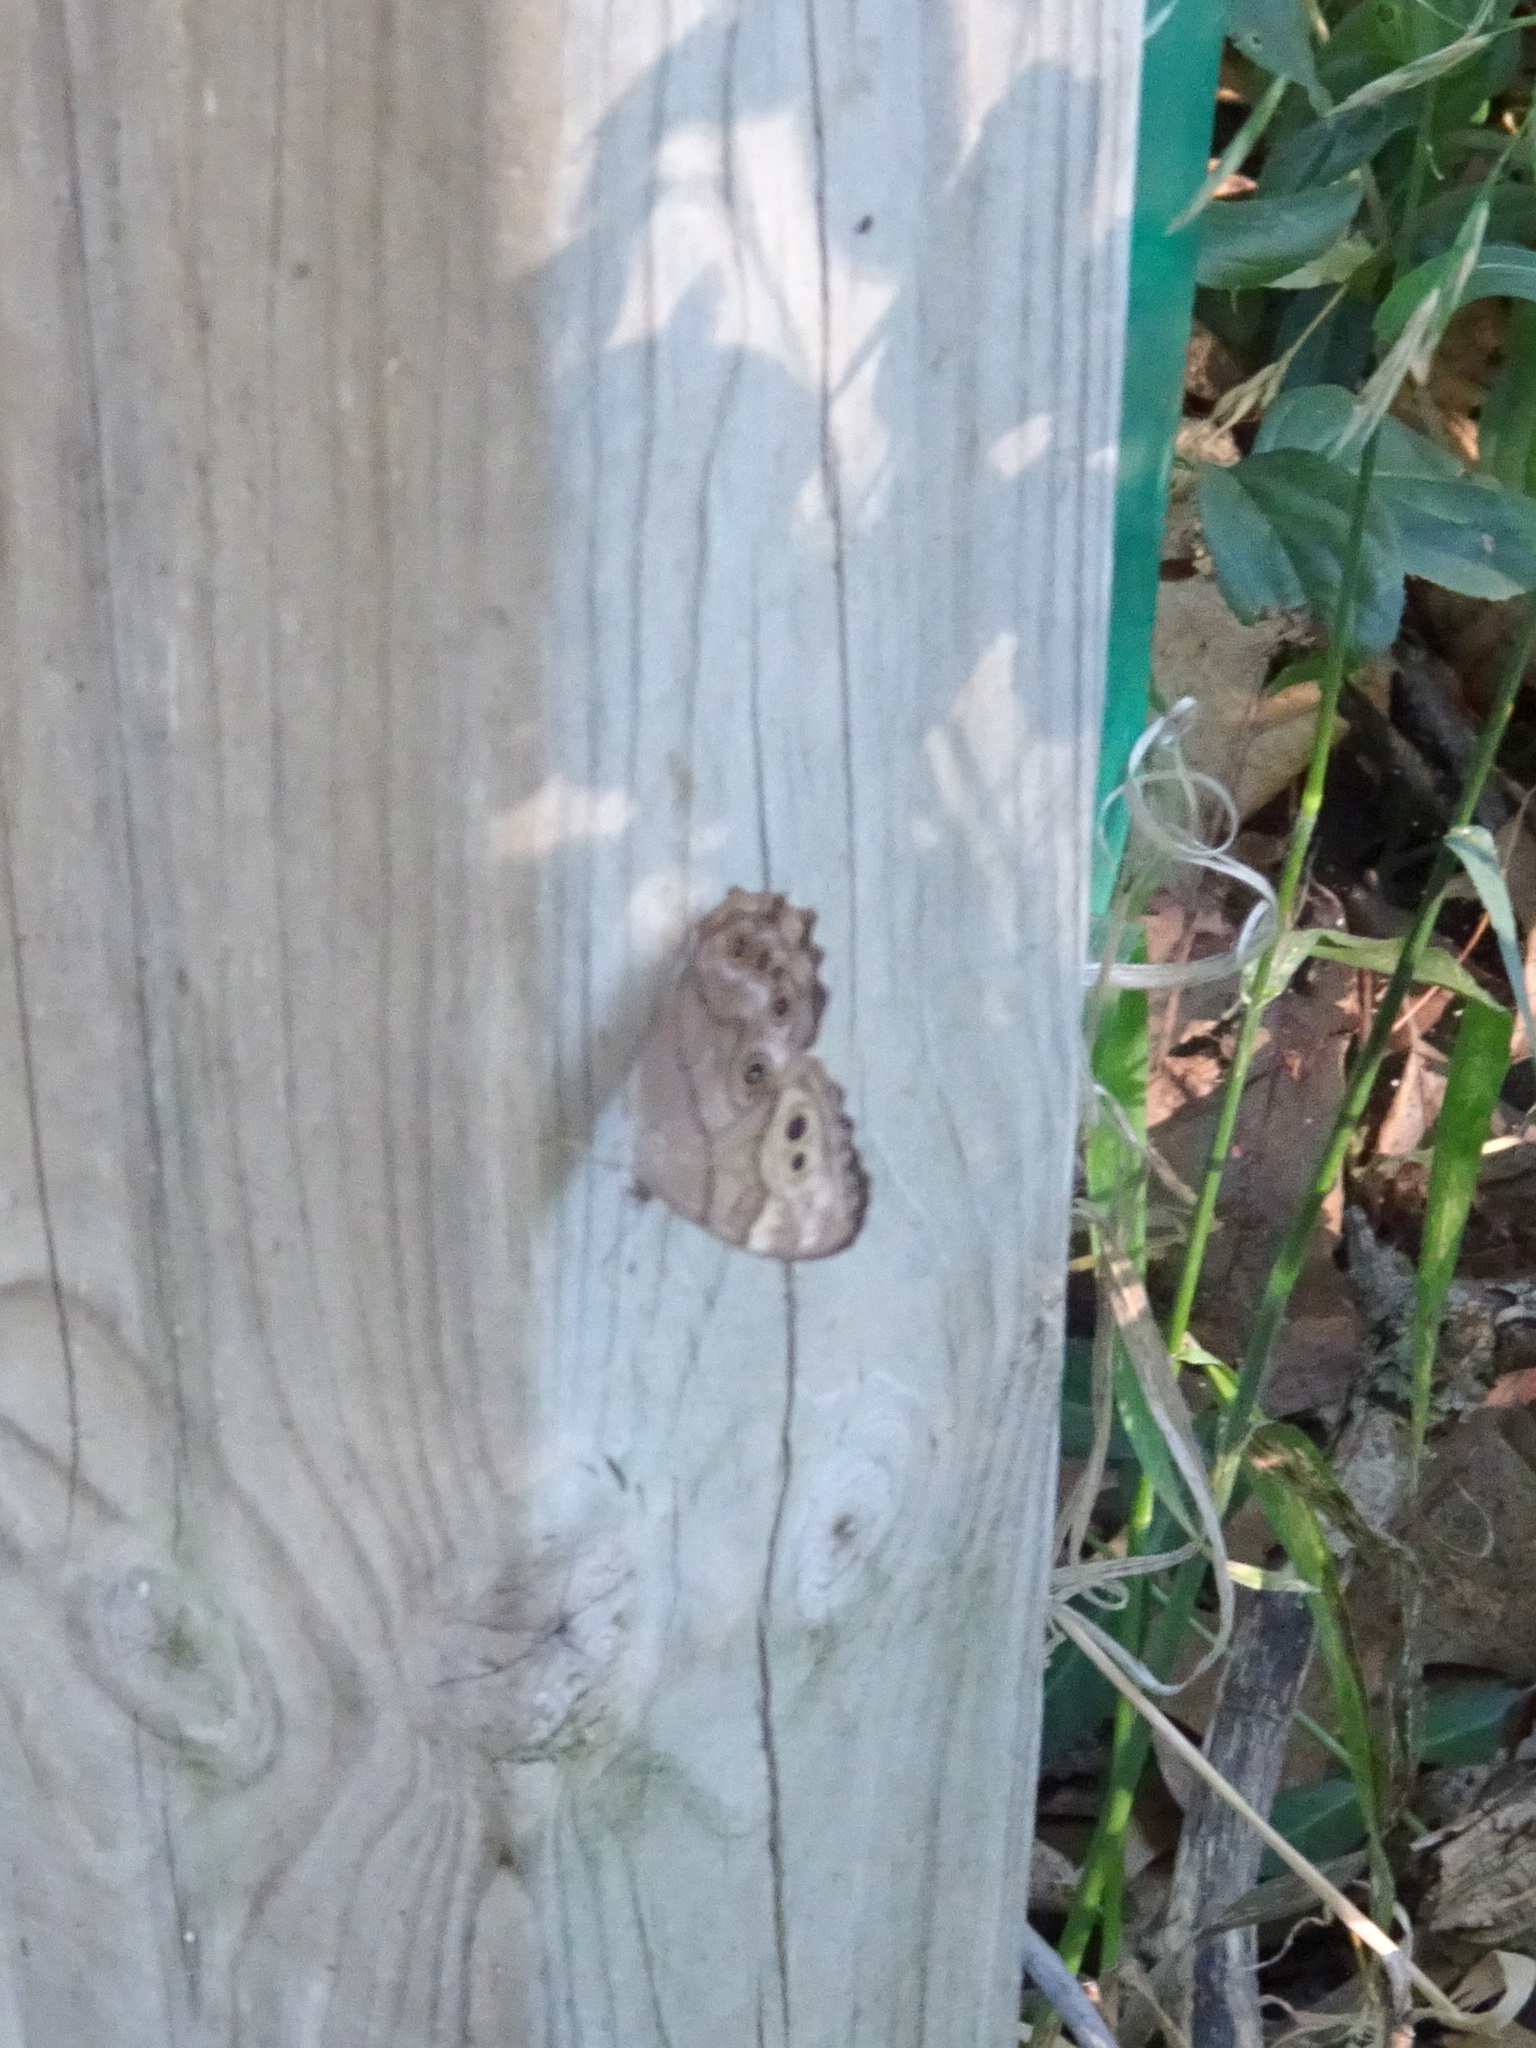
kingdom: Animalia
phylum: Arthropoda
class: Insecta
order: Lepidoptera
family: Nymphalidae
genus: Lethe
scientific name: Lethe anthedon
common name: Northern pearly-eye
